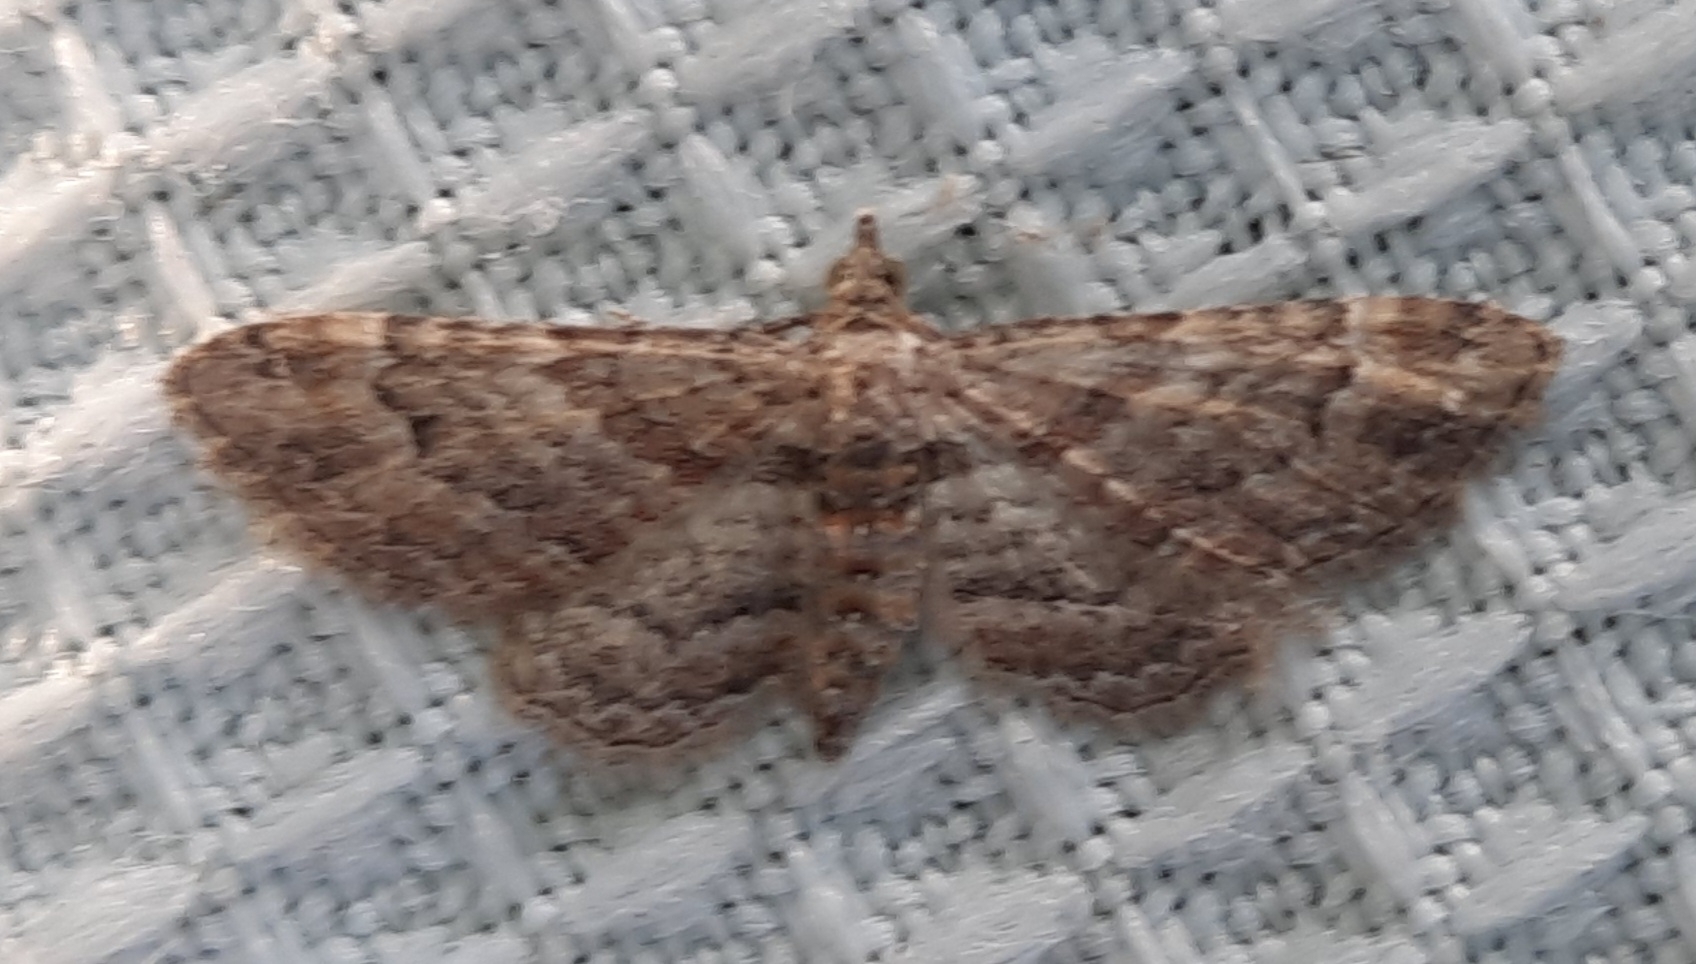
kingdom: Animalia
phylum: Arthropoda
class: Insecta
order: Lepidoptera
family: Geometridae
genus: Gymnoscelis
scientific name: Gymnoscelis rufifasciata
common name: Double-striped pug
